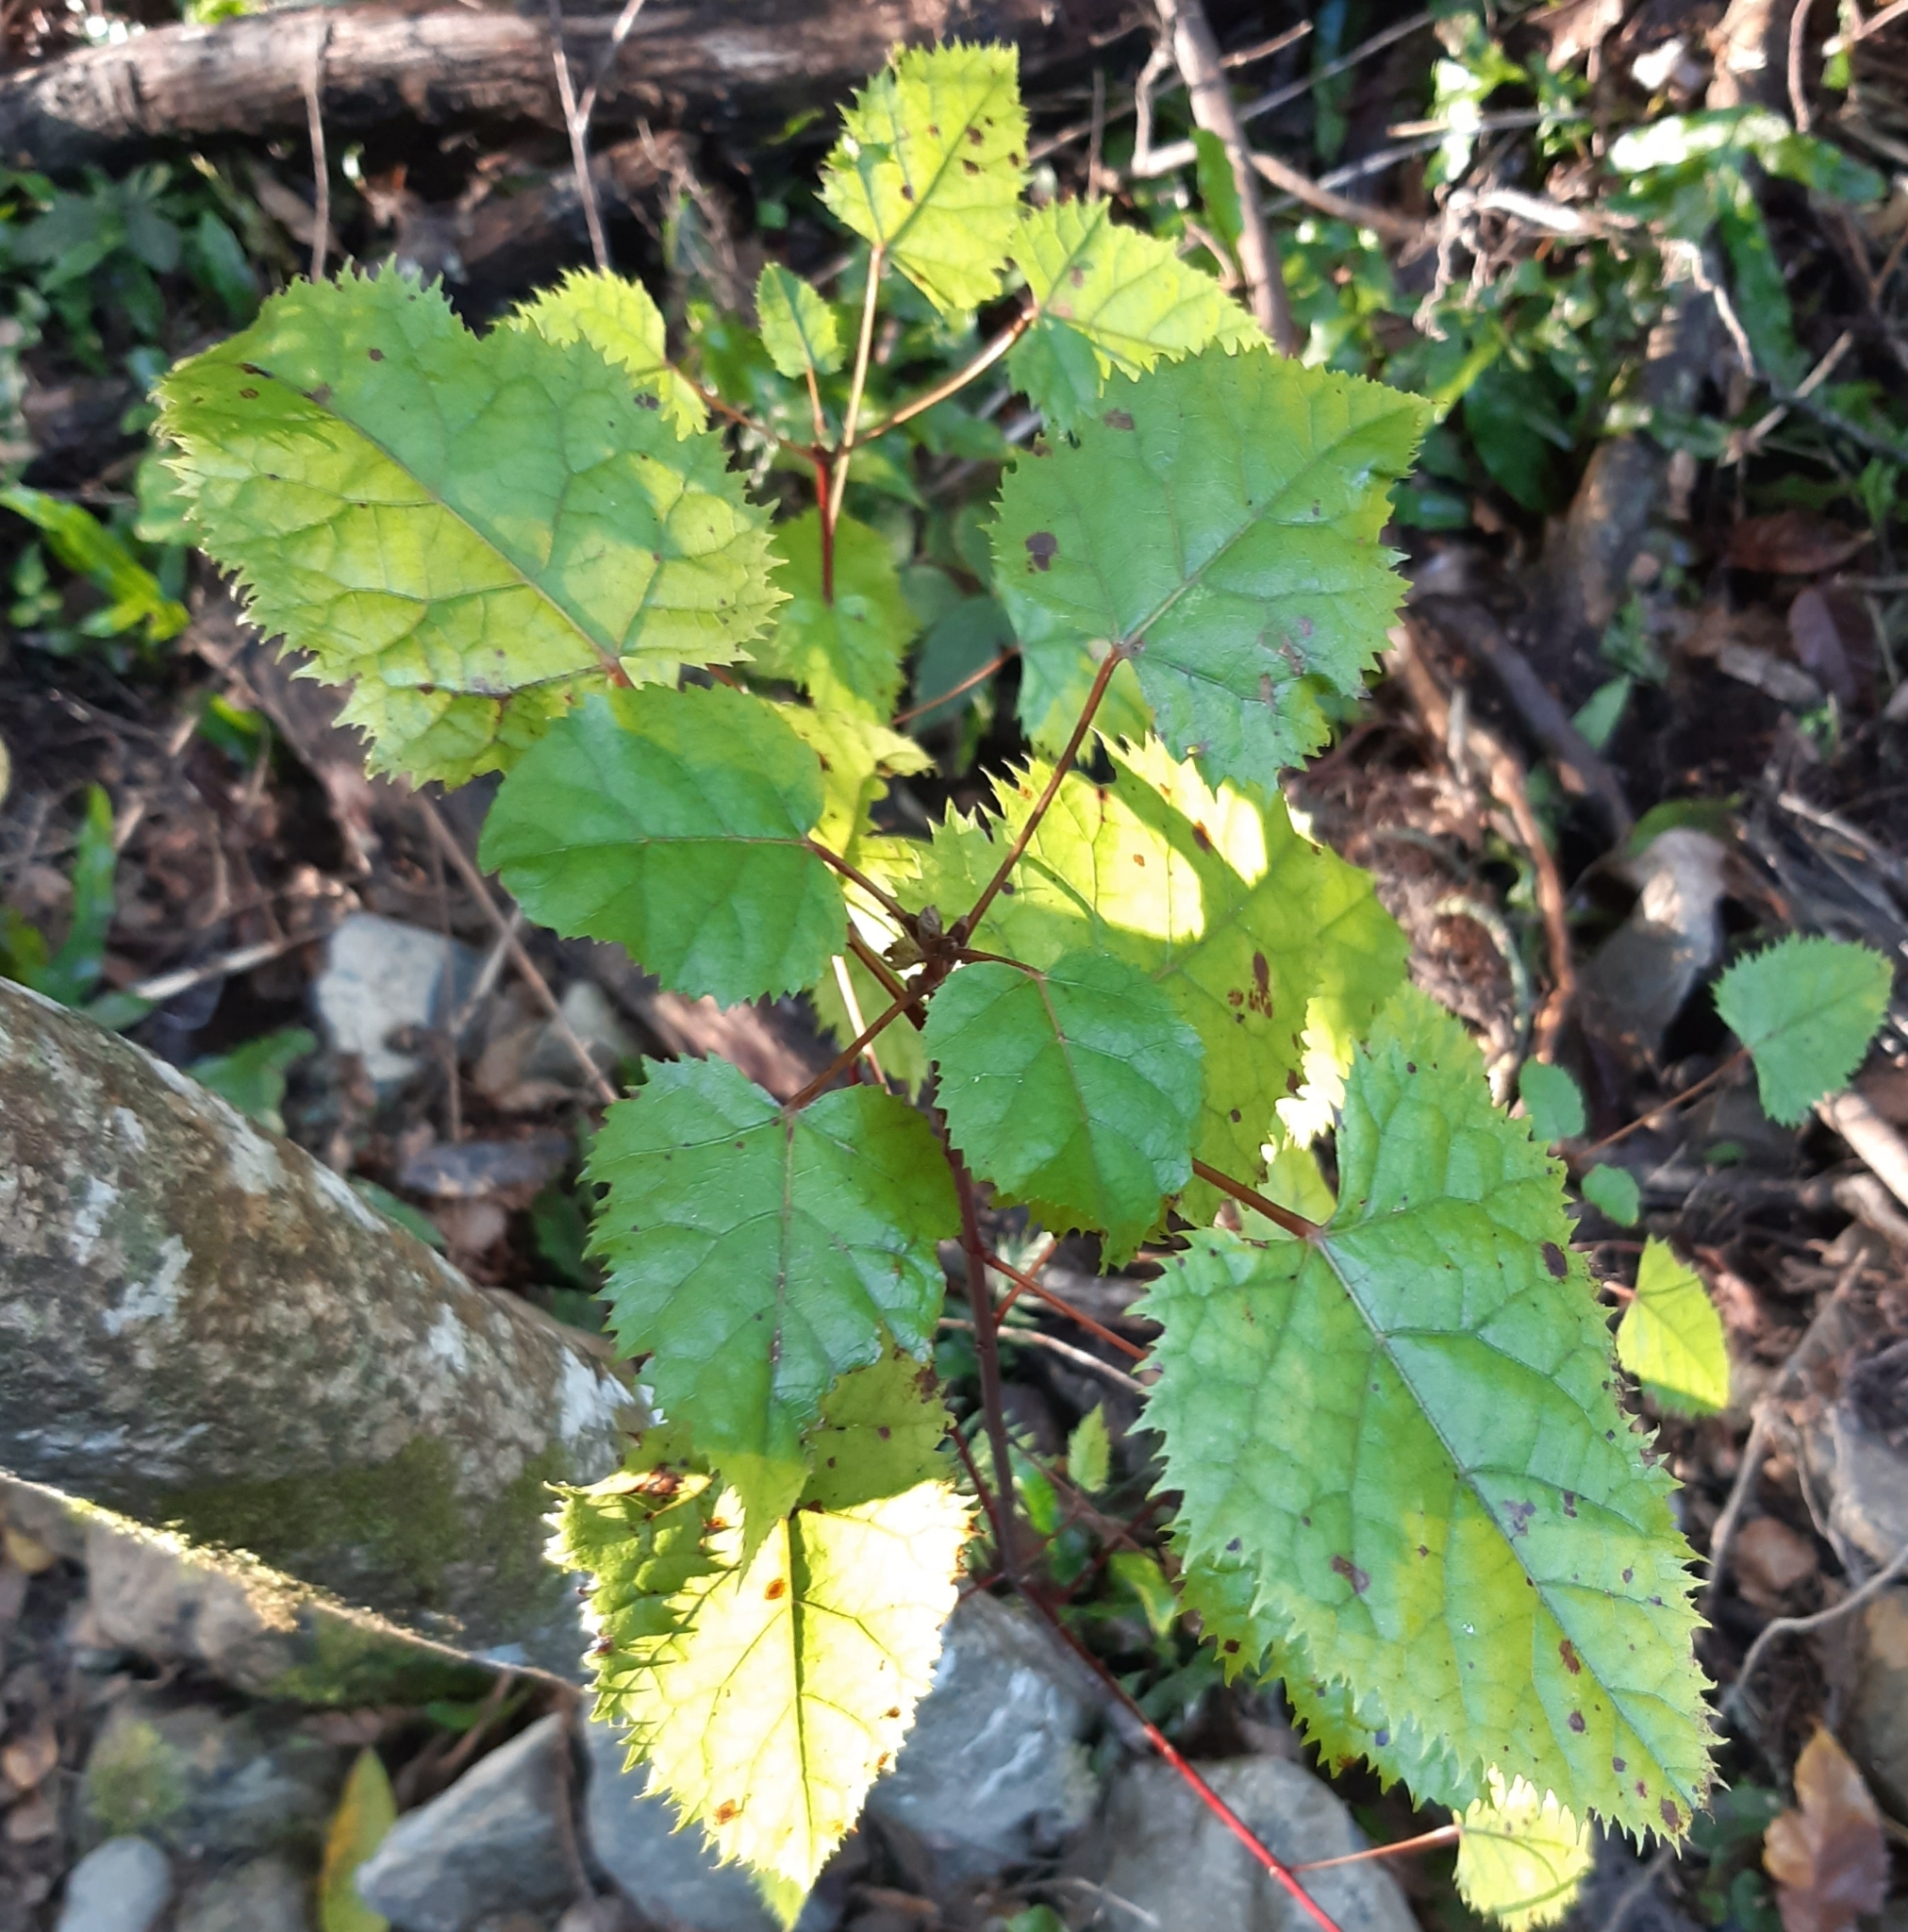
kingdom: Plantae
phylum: Tracheophyta
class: Magnoliopsida
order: Oxalidales
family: Elaeocarpaceae
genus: Aristotelia
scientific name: Aristotelia serrata
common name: New zealand wineberry
